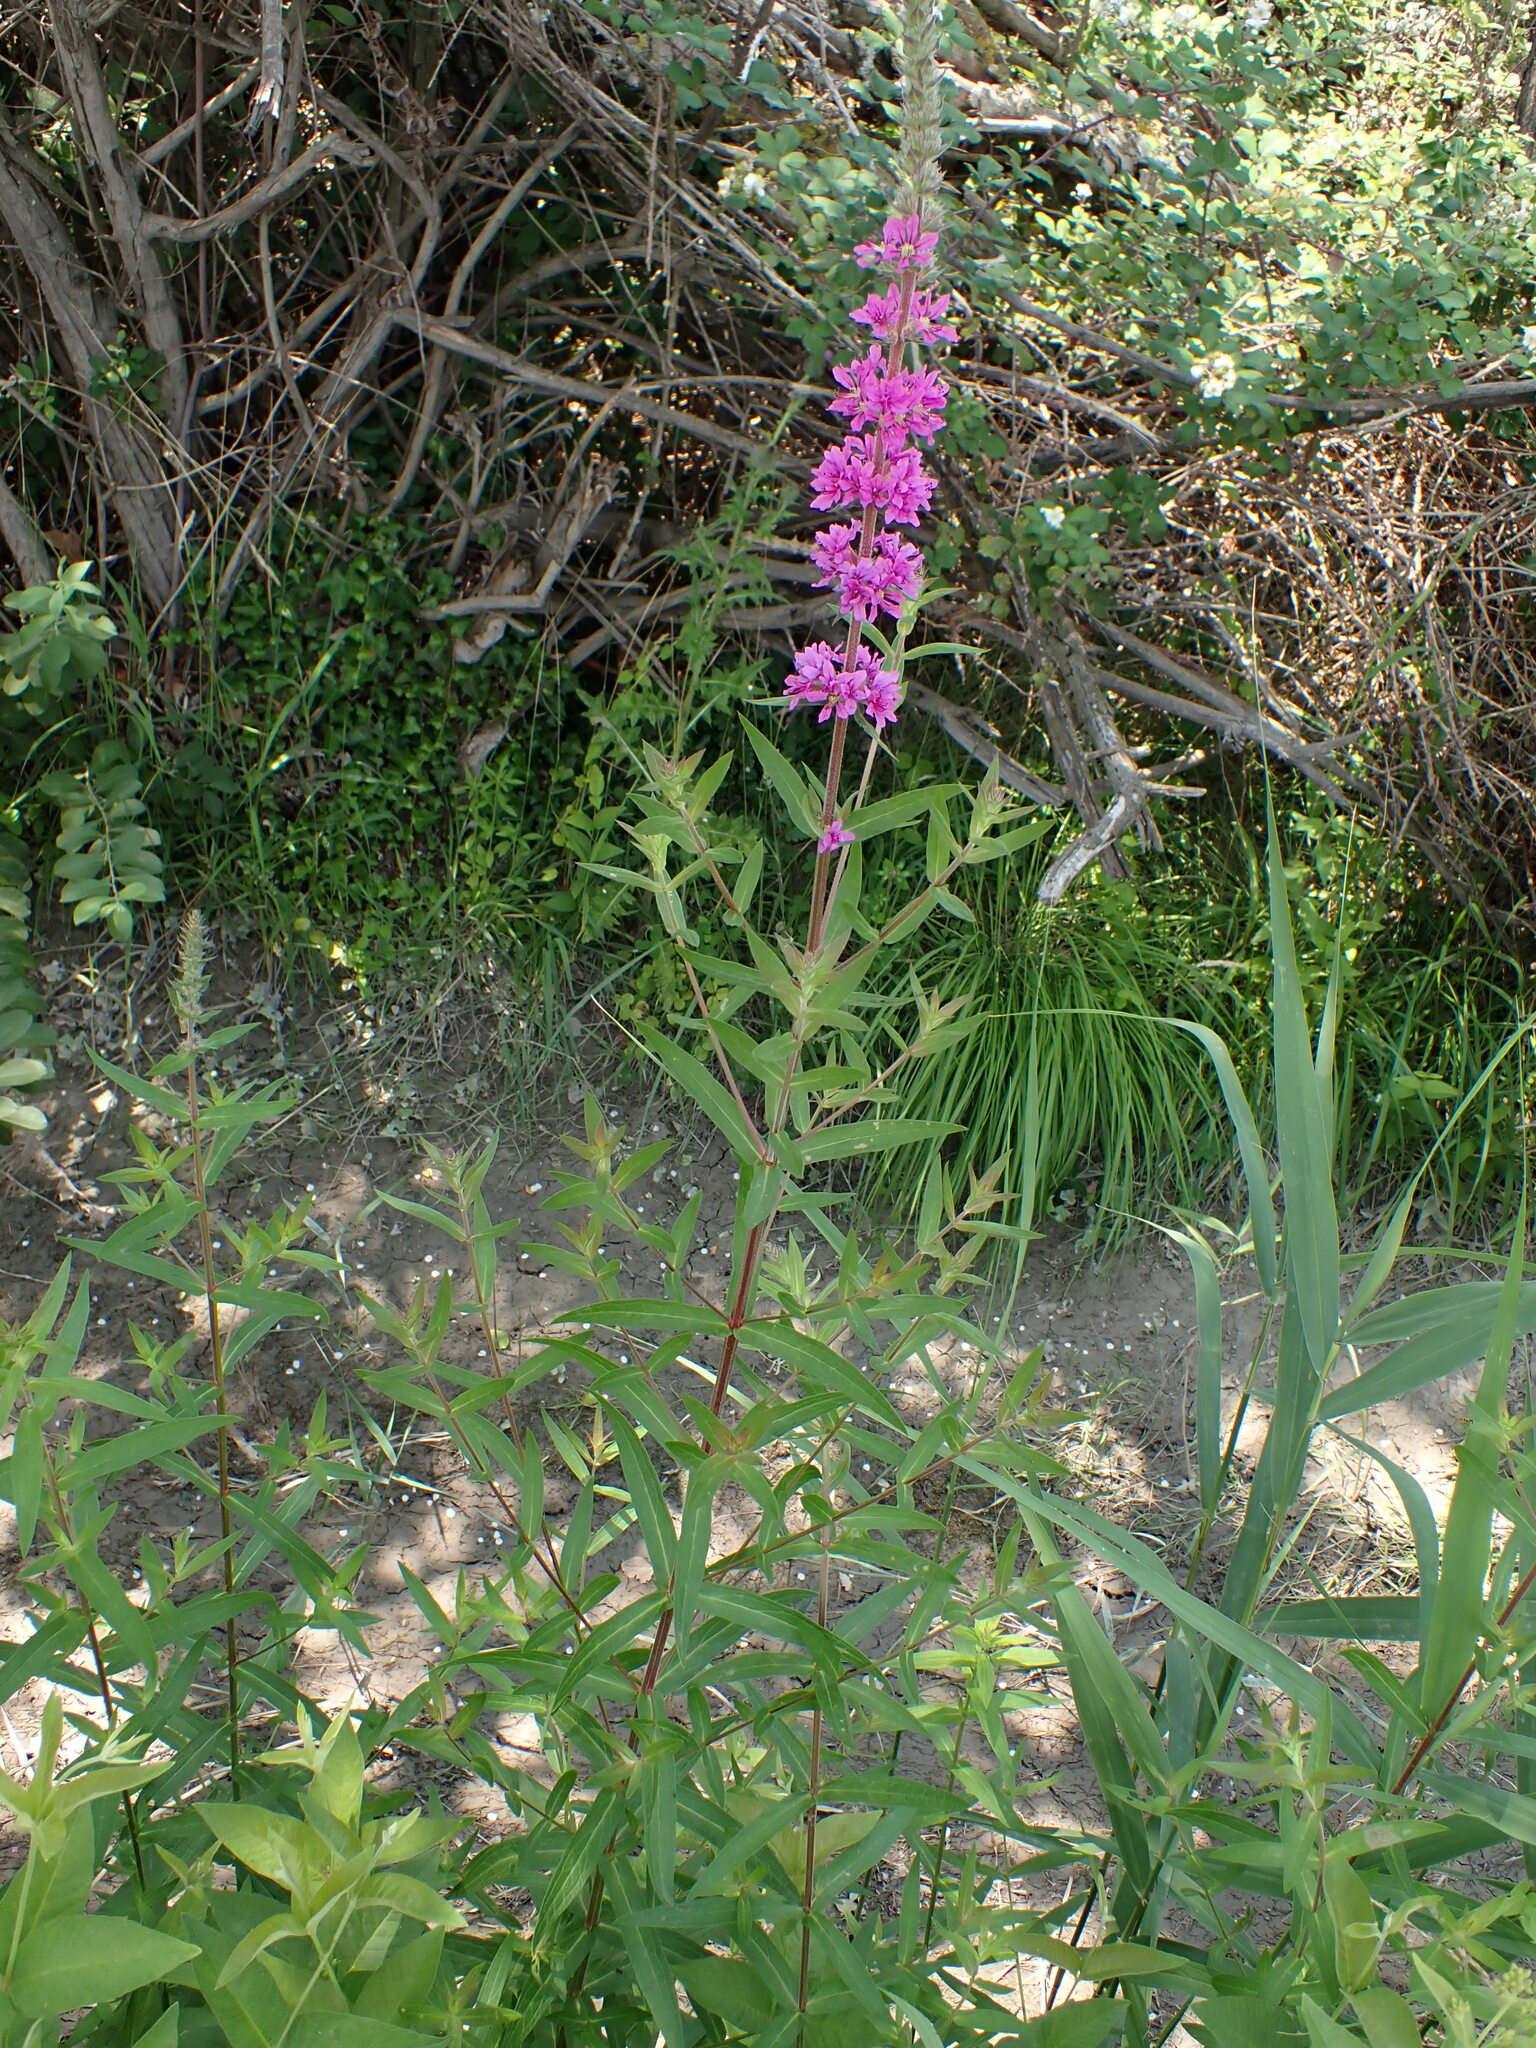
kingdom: Plantae
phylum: Tracheophyta
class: Magnoliopsida
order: Myrtales
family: Lythraceae
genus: Lythrum
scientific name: Lythrum salicaria
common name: Purple loosestrife
